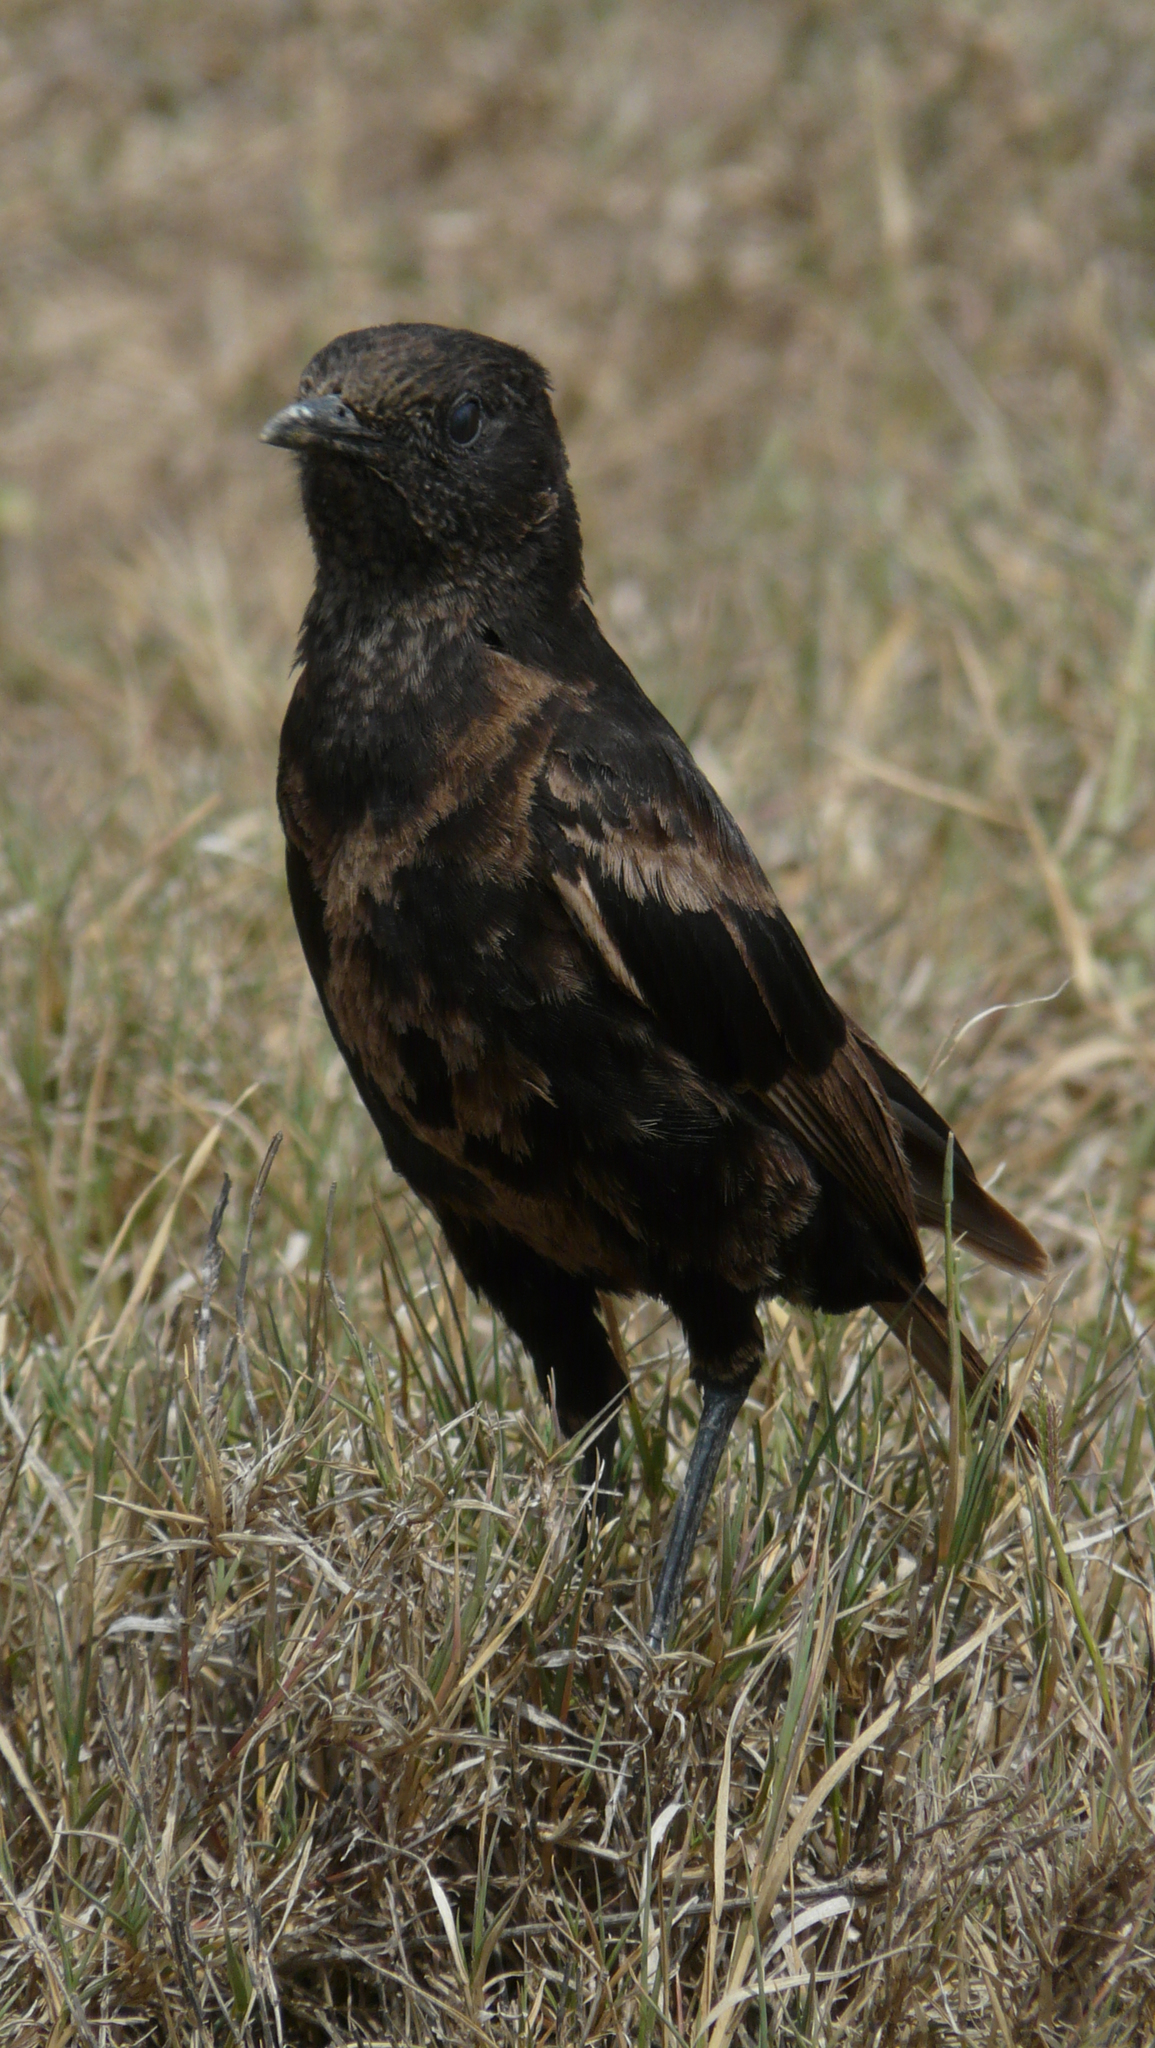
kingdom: Animalia
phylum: Chordata
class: Aves
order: Passeriformes
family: Muscicapidae
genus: Myrmecocichla
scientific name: Myrmecocichla aethiops
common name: Anteater chat
